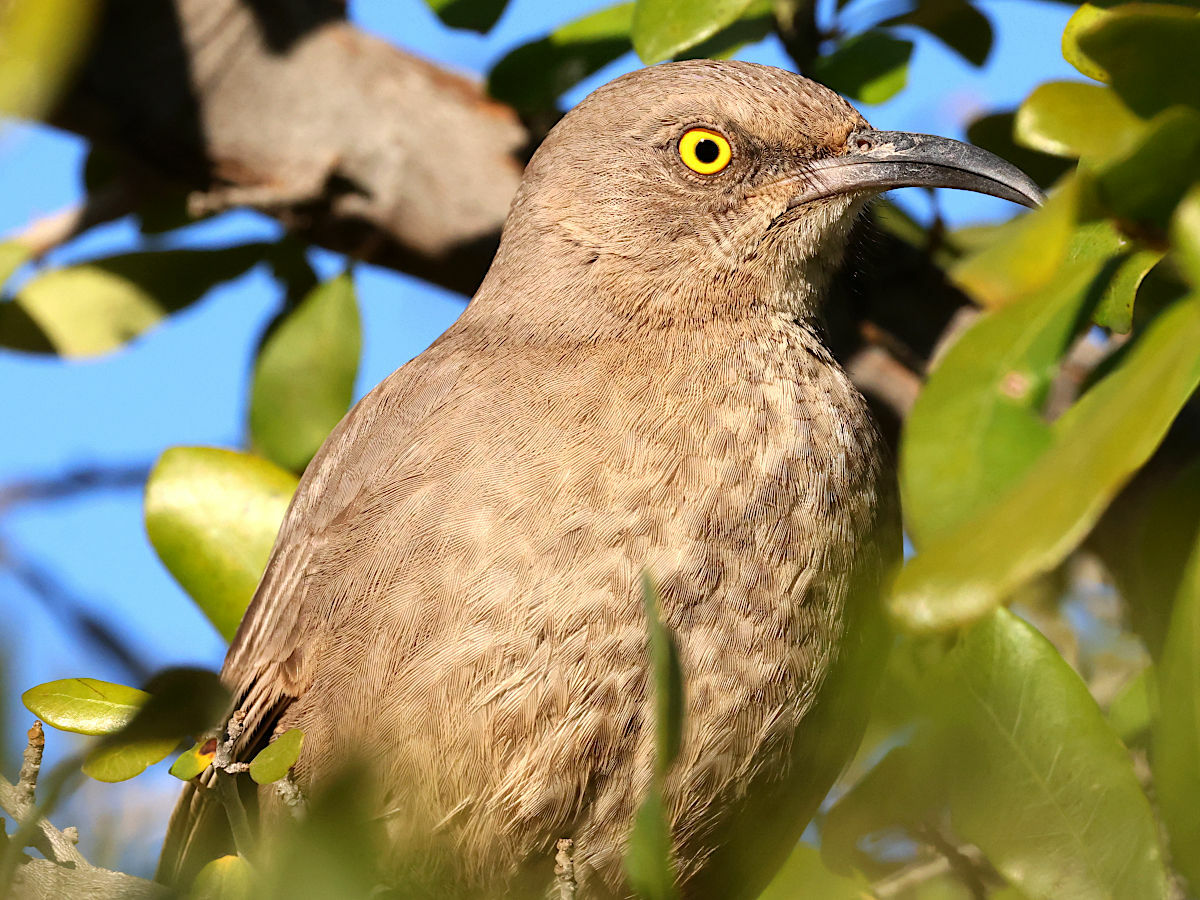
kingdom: Animalia
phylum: Chordata
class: Aves
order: Passeriformes
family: Mimidae
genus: Toxostoma
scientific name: Toxostoma curvirostre
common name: Curve-billed thrasher
